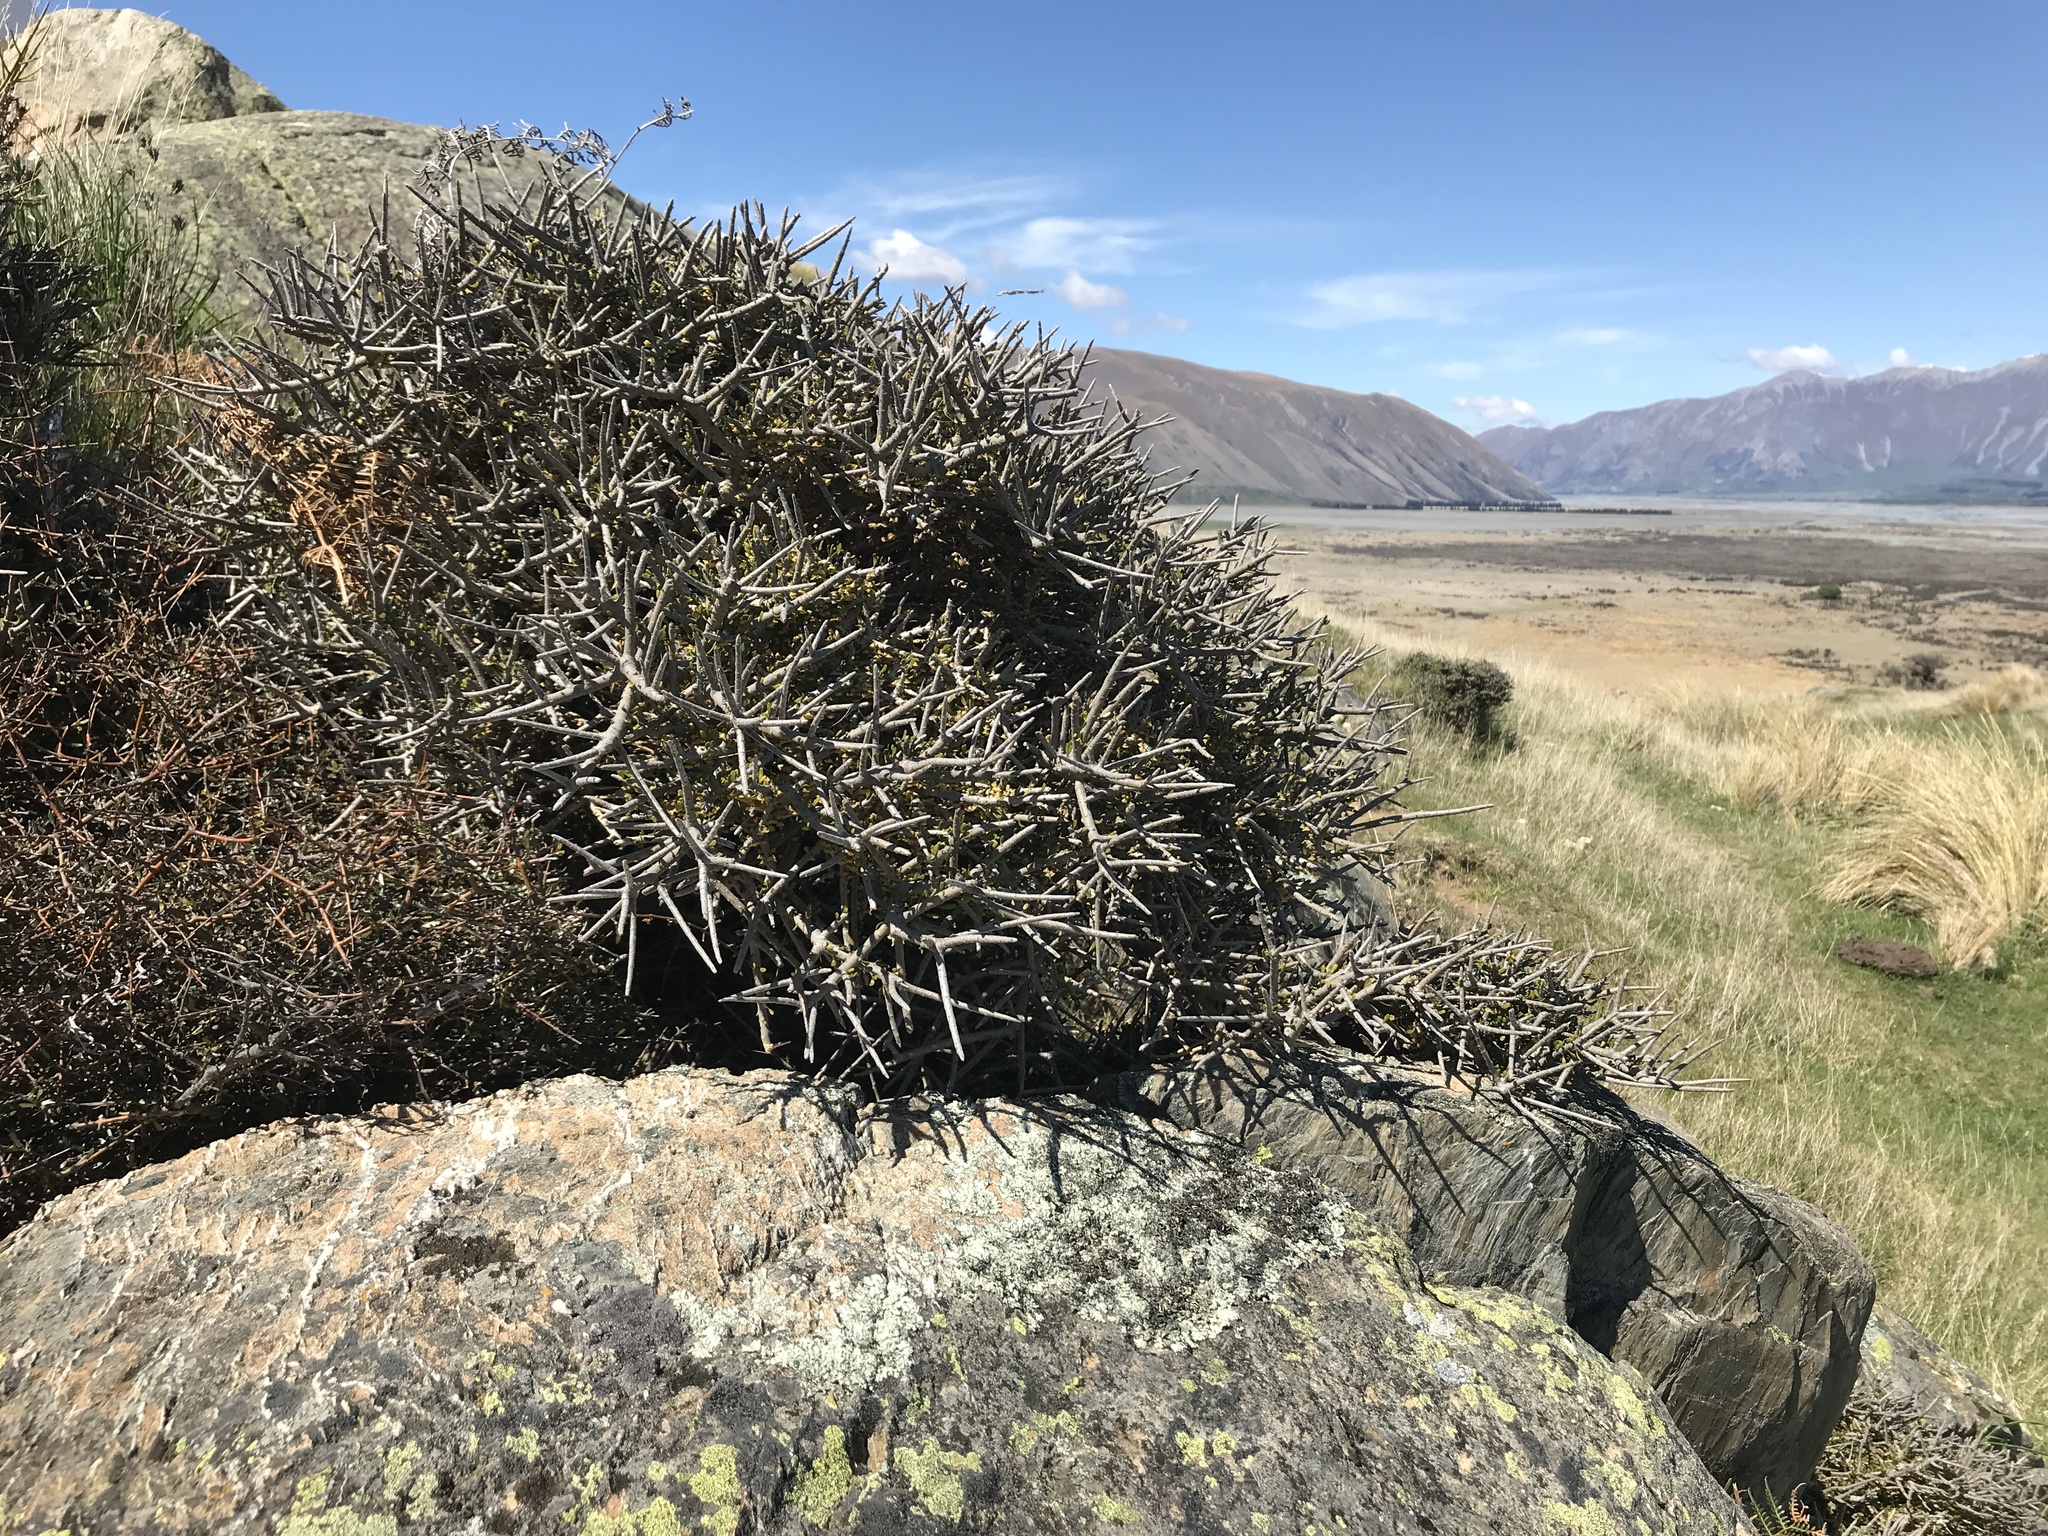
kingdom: Plantae
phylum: Tracheophyta
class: Magnoliopsida
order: Malpighiales
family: Violaceae
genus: Melicytus
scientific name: Melicytus alpinus
